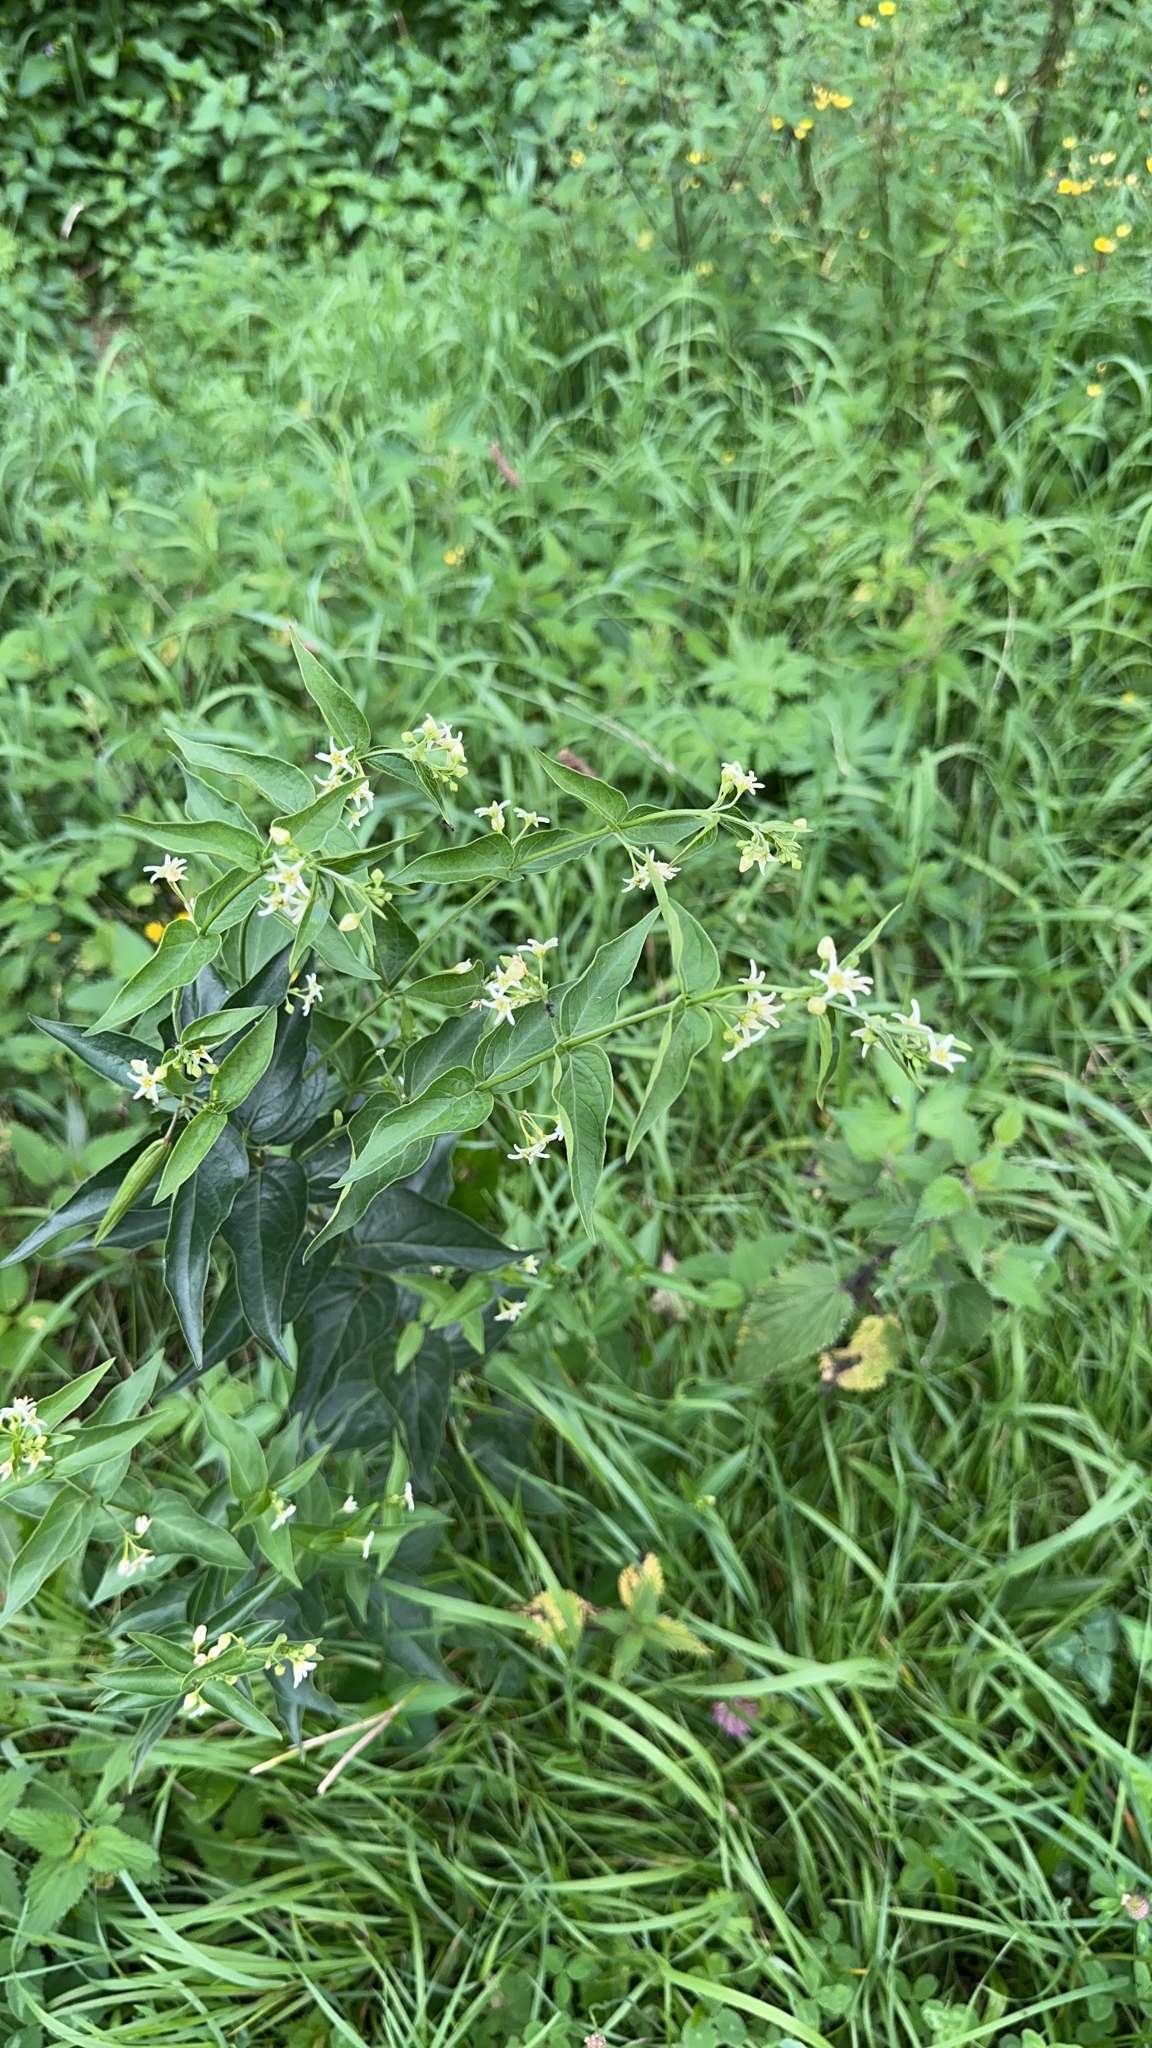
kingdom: Plantae
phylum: Tracheophyta
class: Magnoliopsida
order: Gentianales
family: Apocynaceae
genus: Vincetoxicum
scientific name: Vincetoxicum hirundinaria
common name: White swallowwort
